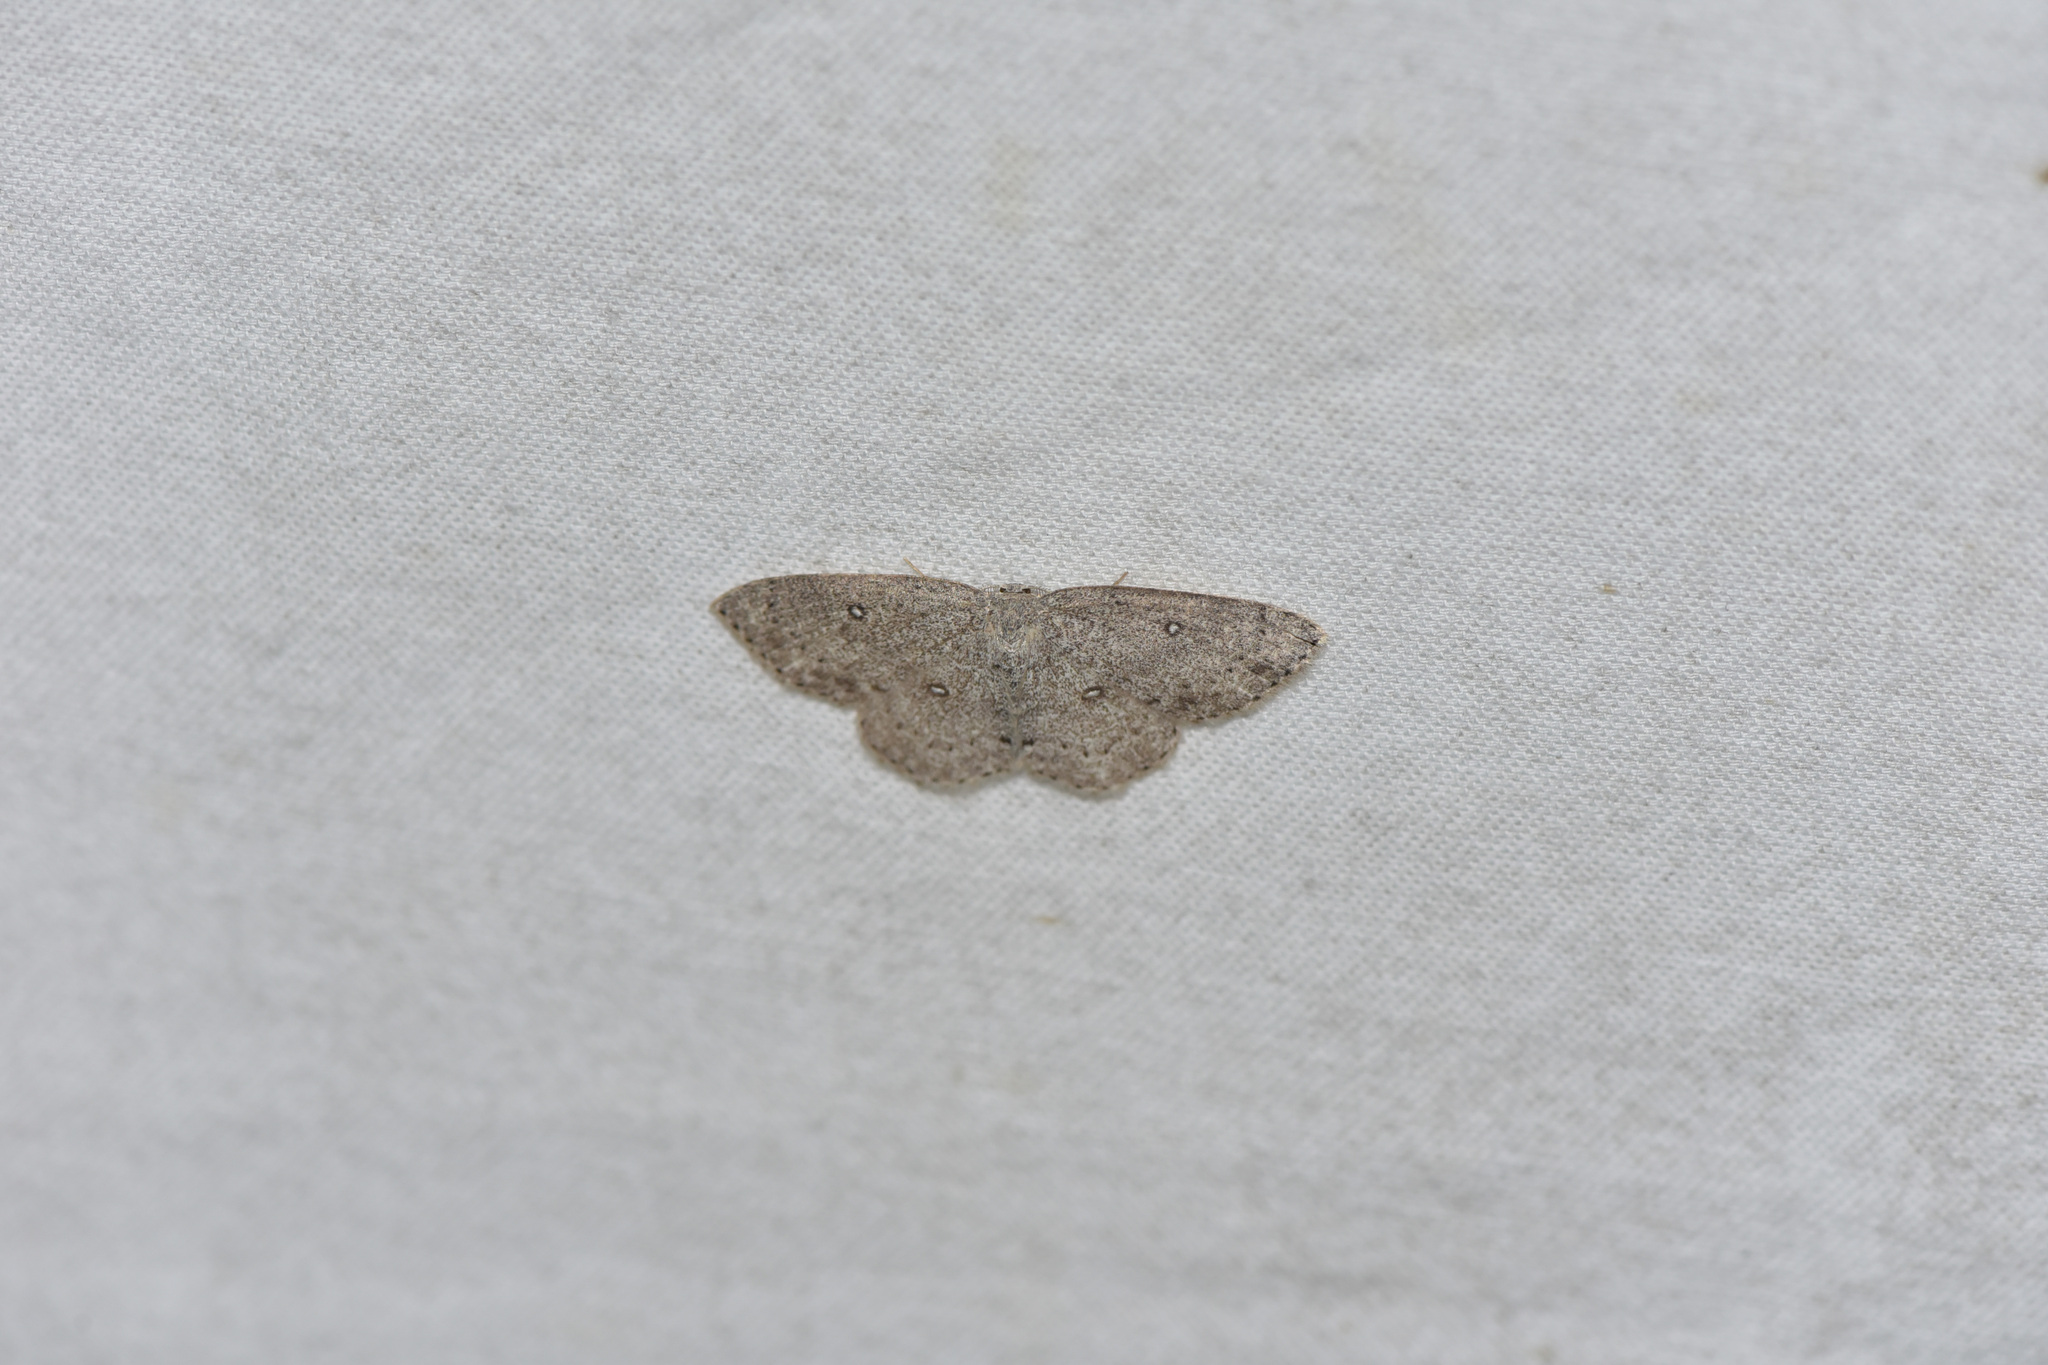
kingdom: Animalia
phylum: Arthropoda
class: Insecta
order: Lepidoptera
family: Geometridae
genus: Cyclophora
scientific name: Cyclophora pendulinaria
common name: Sweet fern geometer
